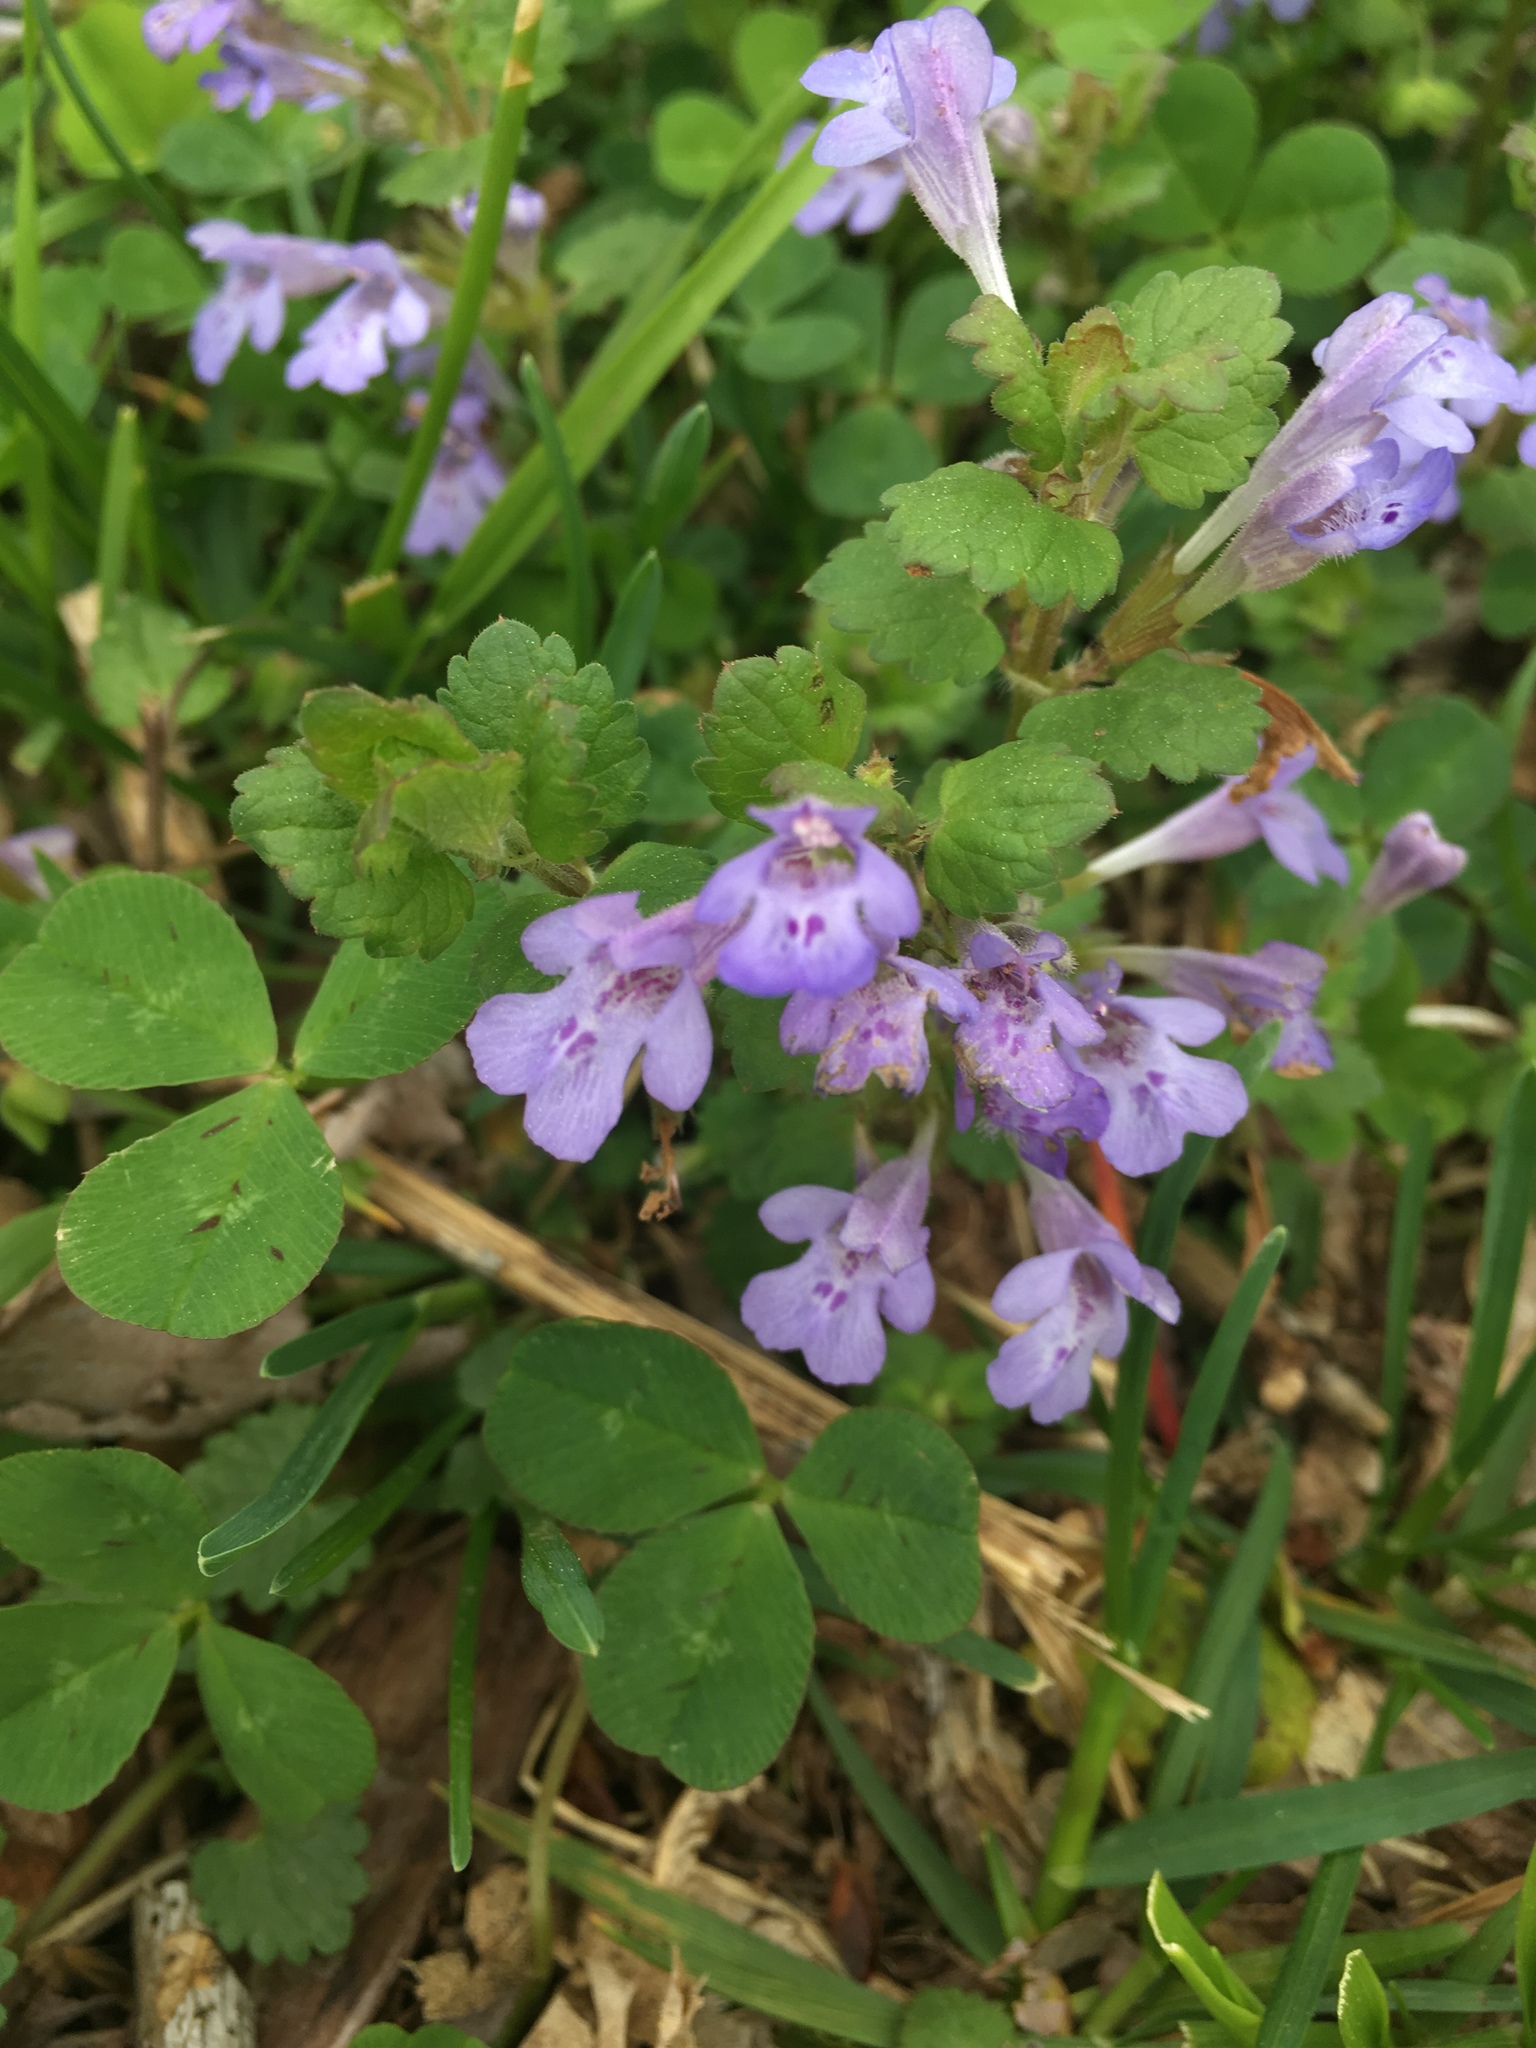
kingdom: Plantae
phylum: Tracheophyta
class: Magnoliopsida
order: Lamiales
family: Lamiaceae
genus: Glechoma
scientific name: Glechoma hederacea
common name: Ground ivy
